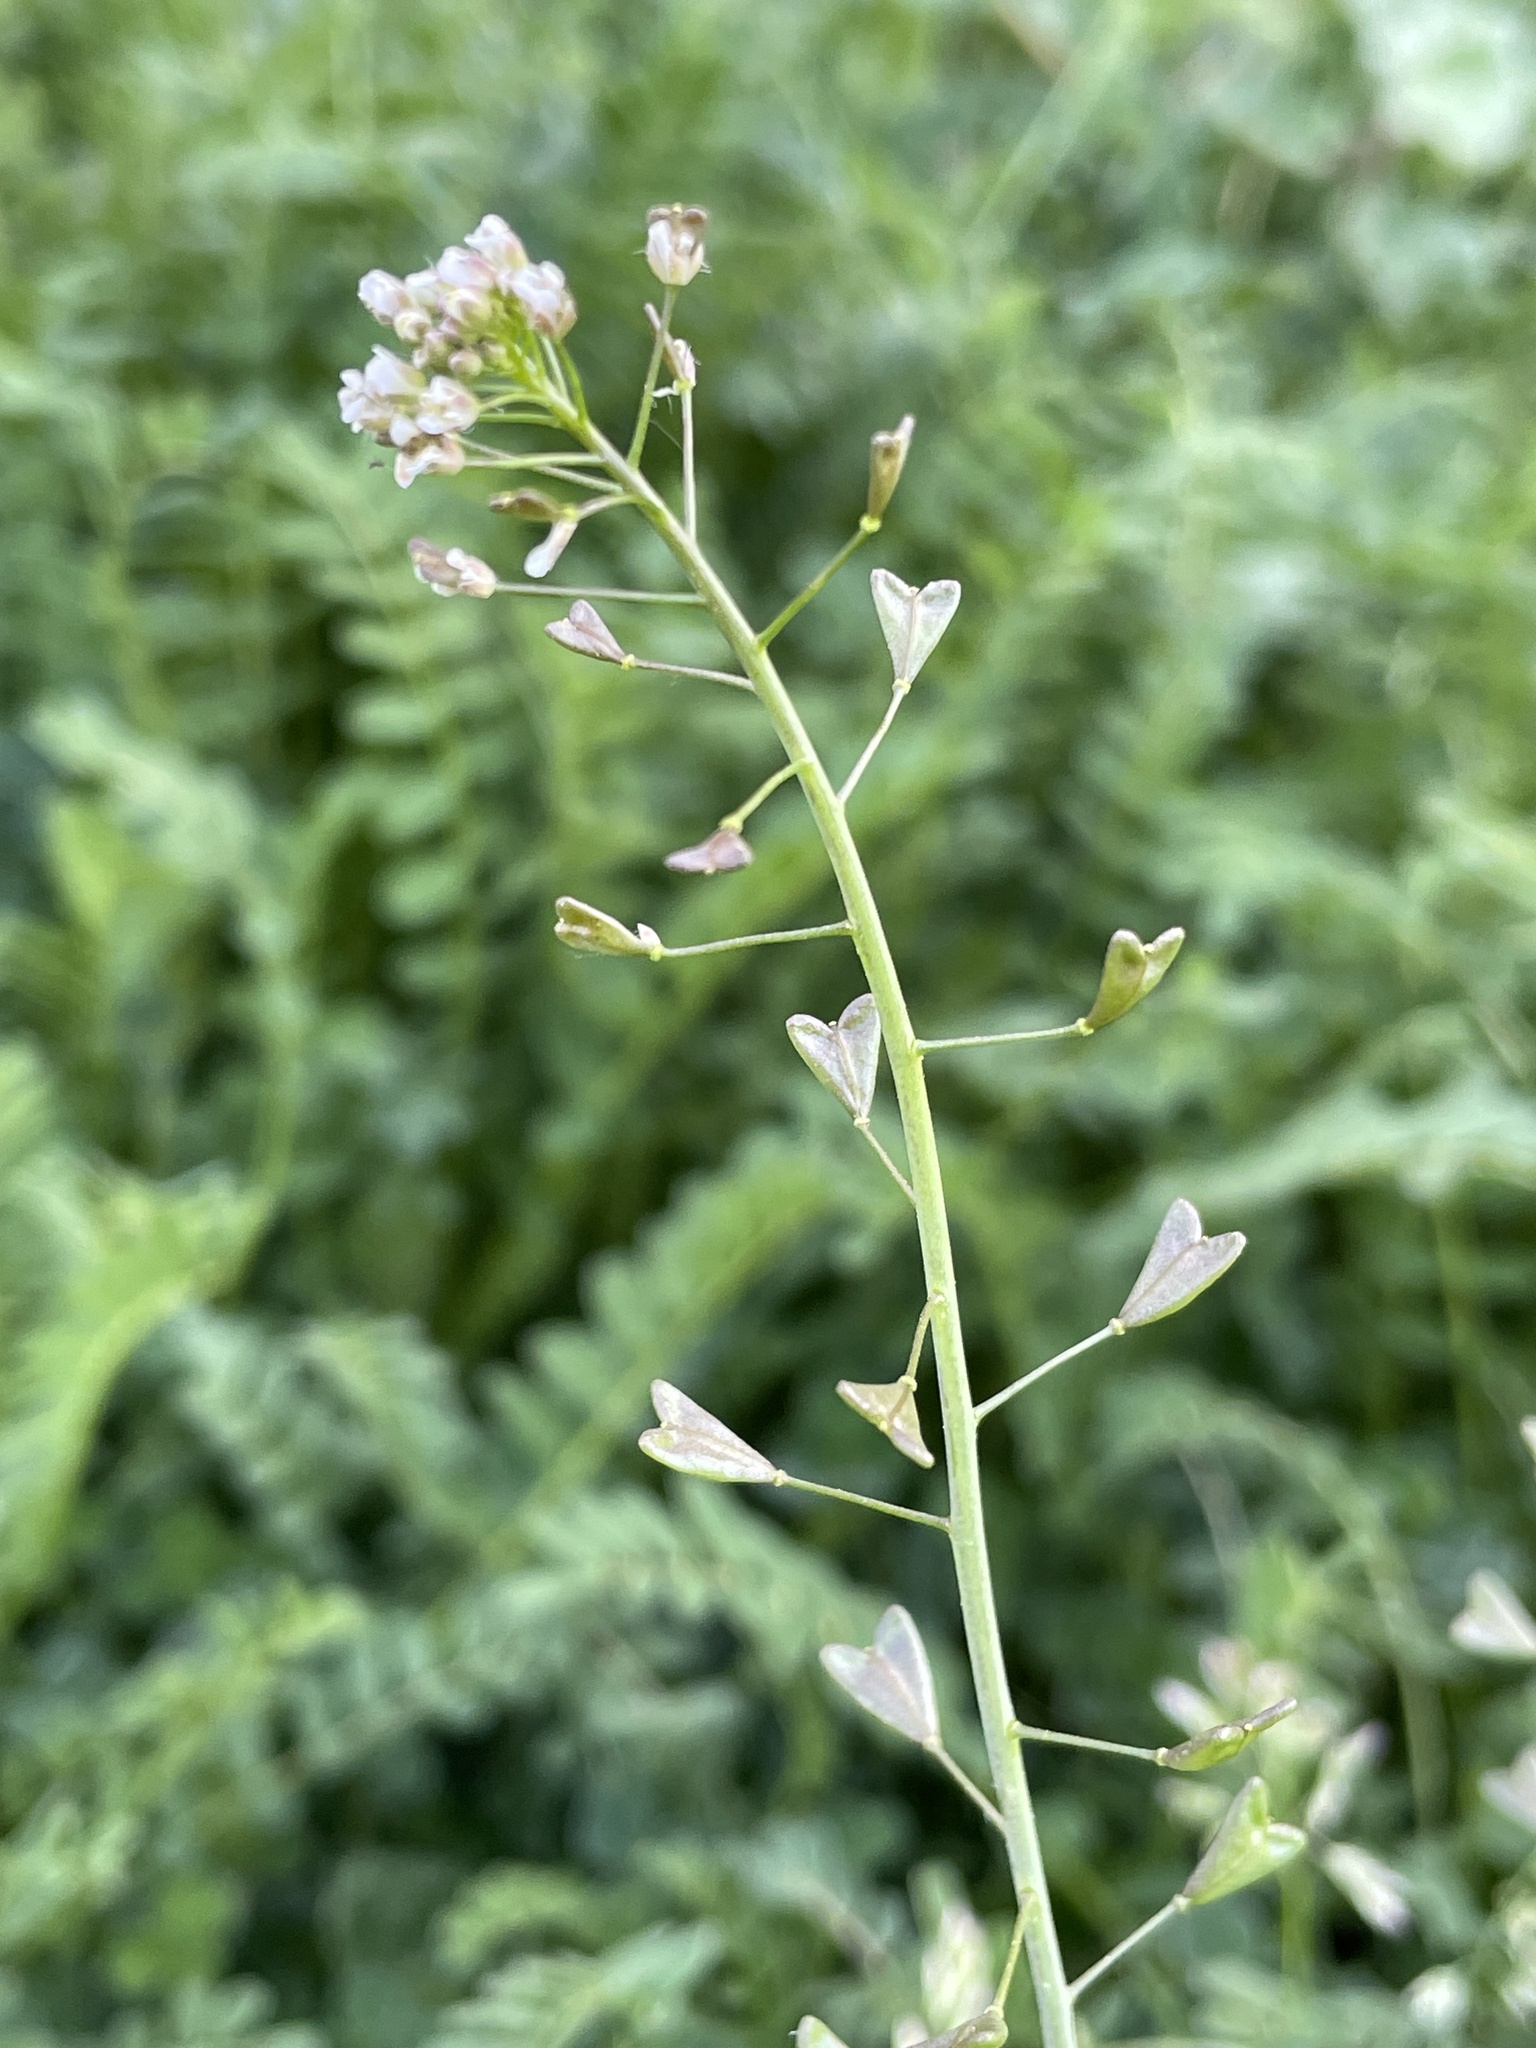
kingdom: Plantae
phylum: Tracheophyta
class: Magnoliopsida
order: Brassicales
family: Brassicaceae
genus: Capsella
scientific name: Capsella bursa-pastoris
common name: Shepherd's purse
